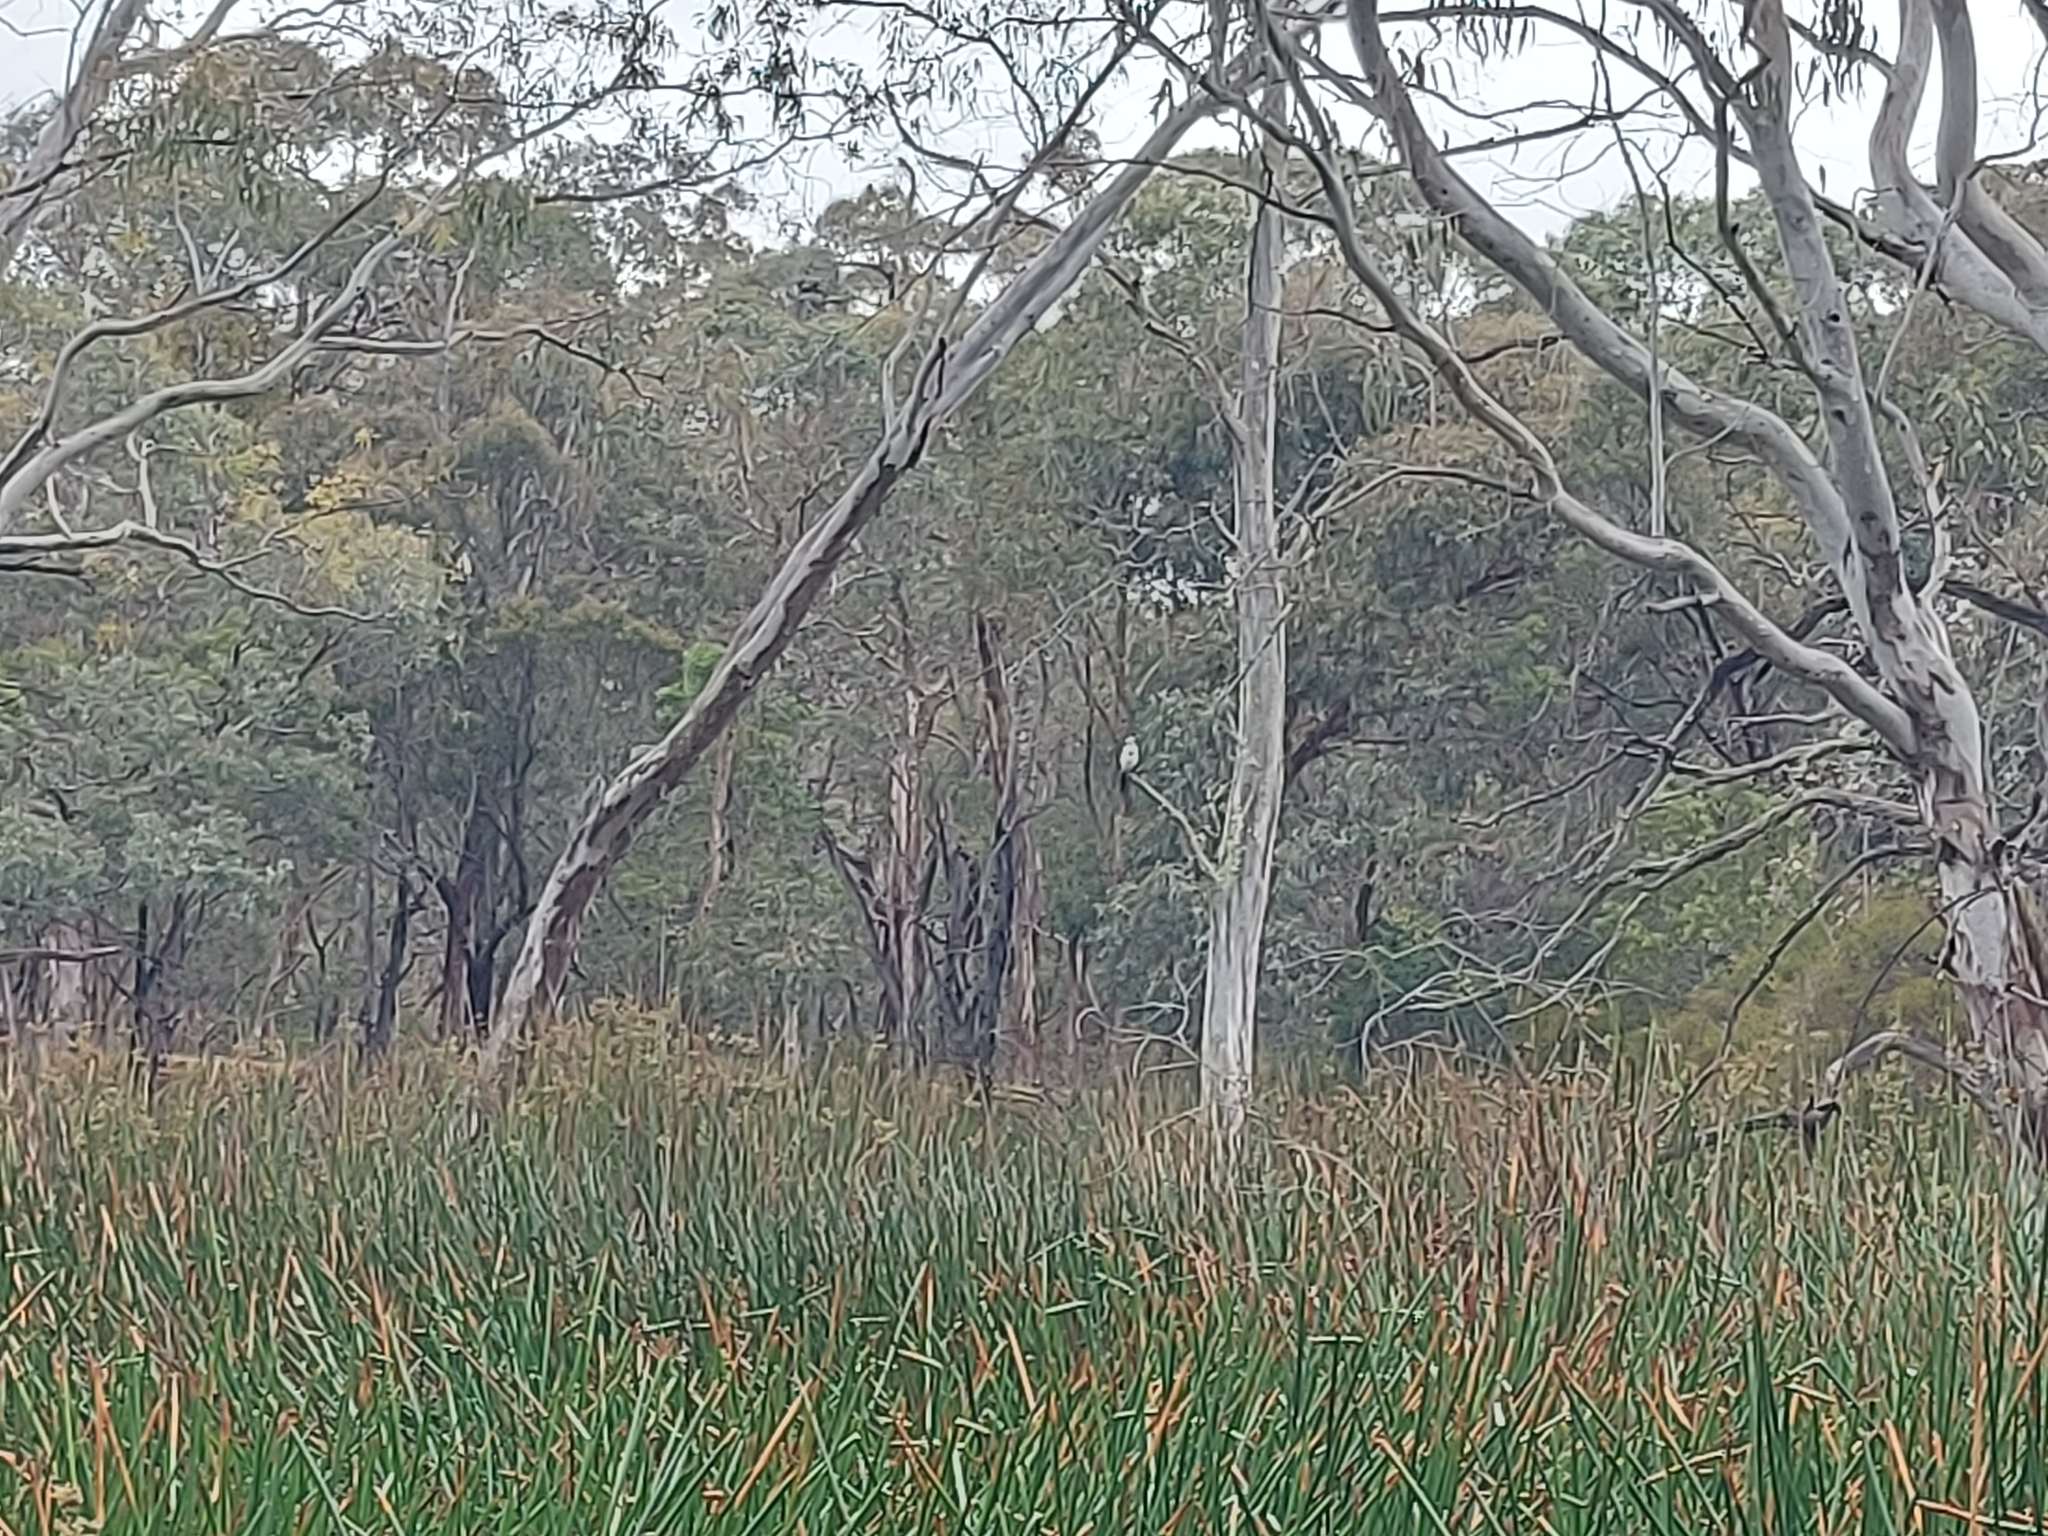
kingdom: Animalia
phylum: Chordata
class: Aves
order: Suliformes
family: Phalacrocoracidae
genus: Microcarbo
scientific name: Microcarbo melanoleucos
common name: Little pied cormorant
